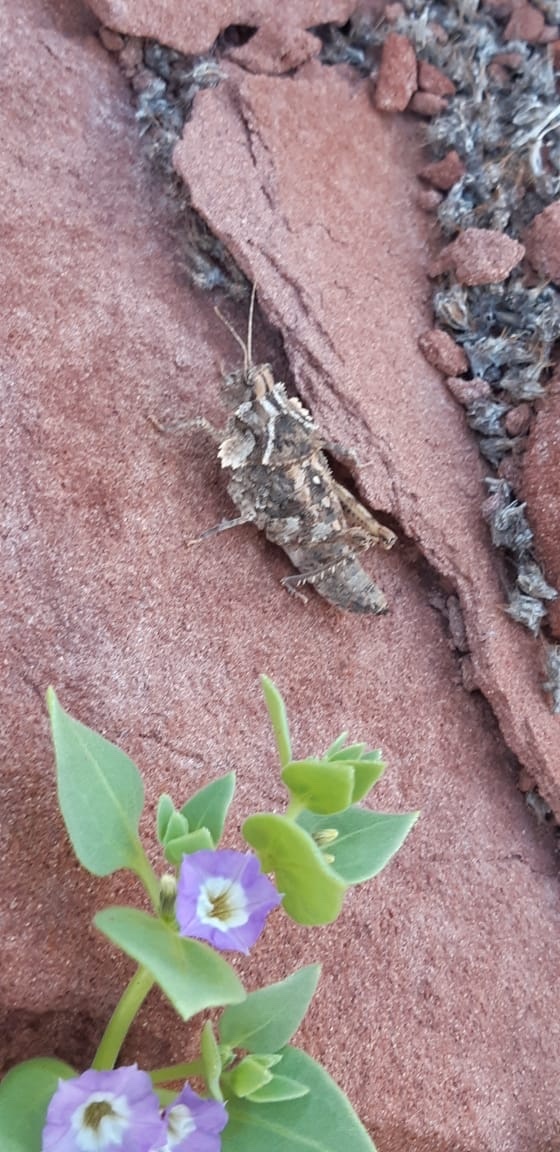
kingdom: Animalia
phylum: Arthropoda
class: Insecta
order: Orthoptera
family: Ommexechidae
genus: Graea
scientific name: Graea horrida
